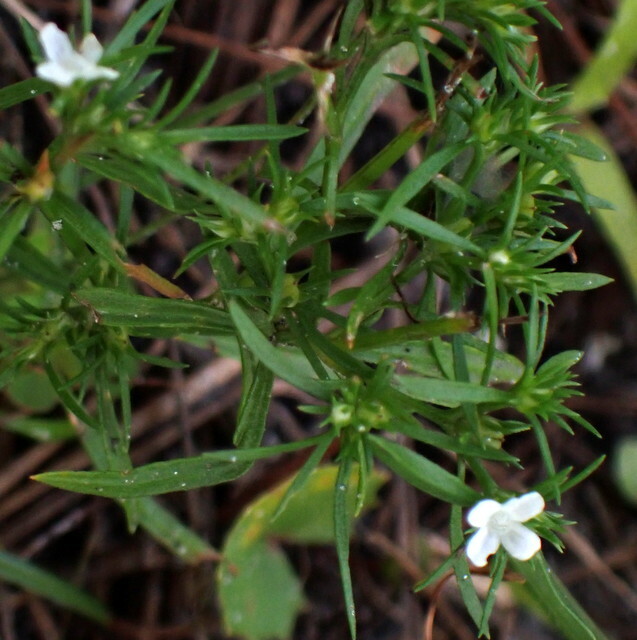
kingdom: Plantae
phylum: Tracheophyta
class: Magnoliopsida
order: Lamiales
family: Tetrachondraceae
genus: Polypremum
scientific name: Polypremum procumbens
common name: Juniper-leaf
